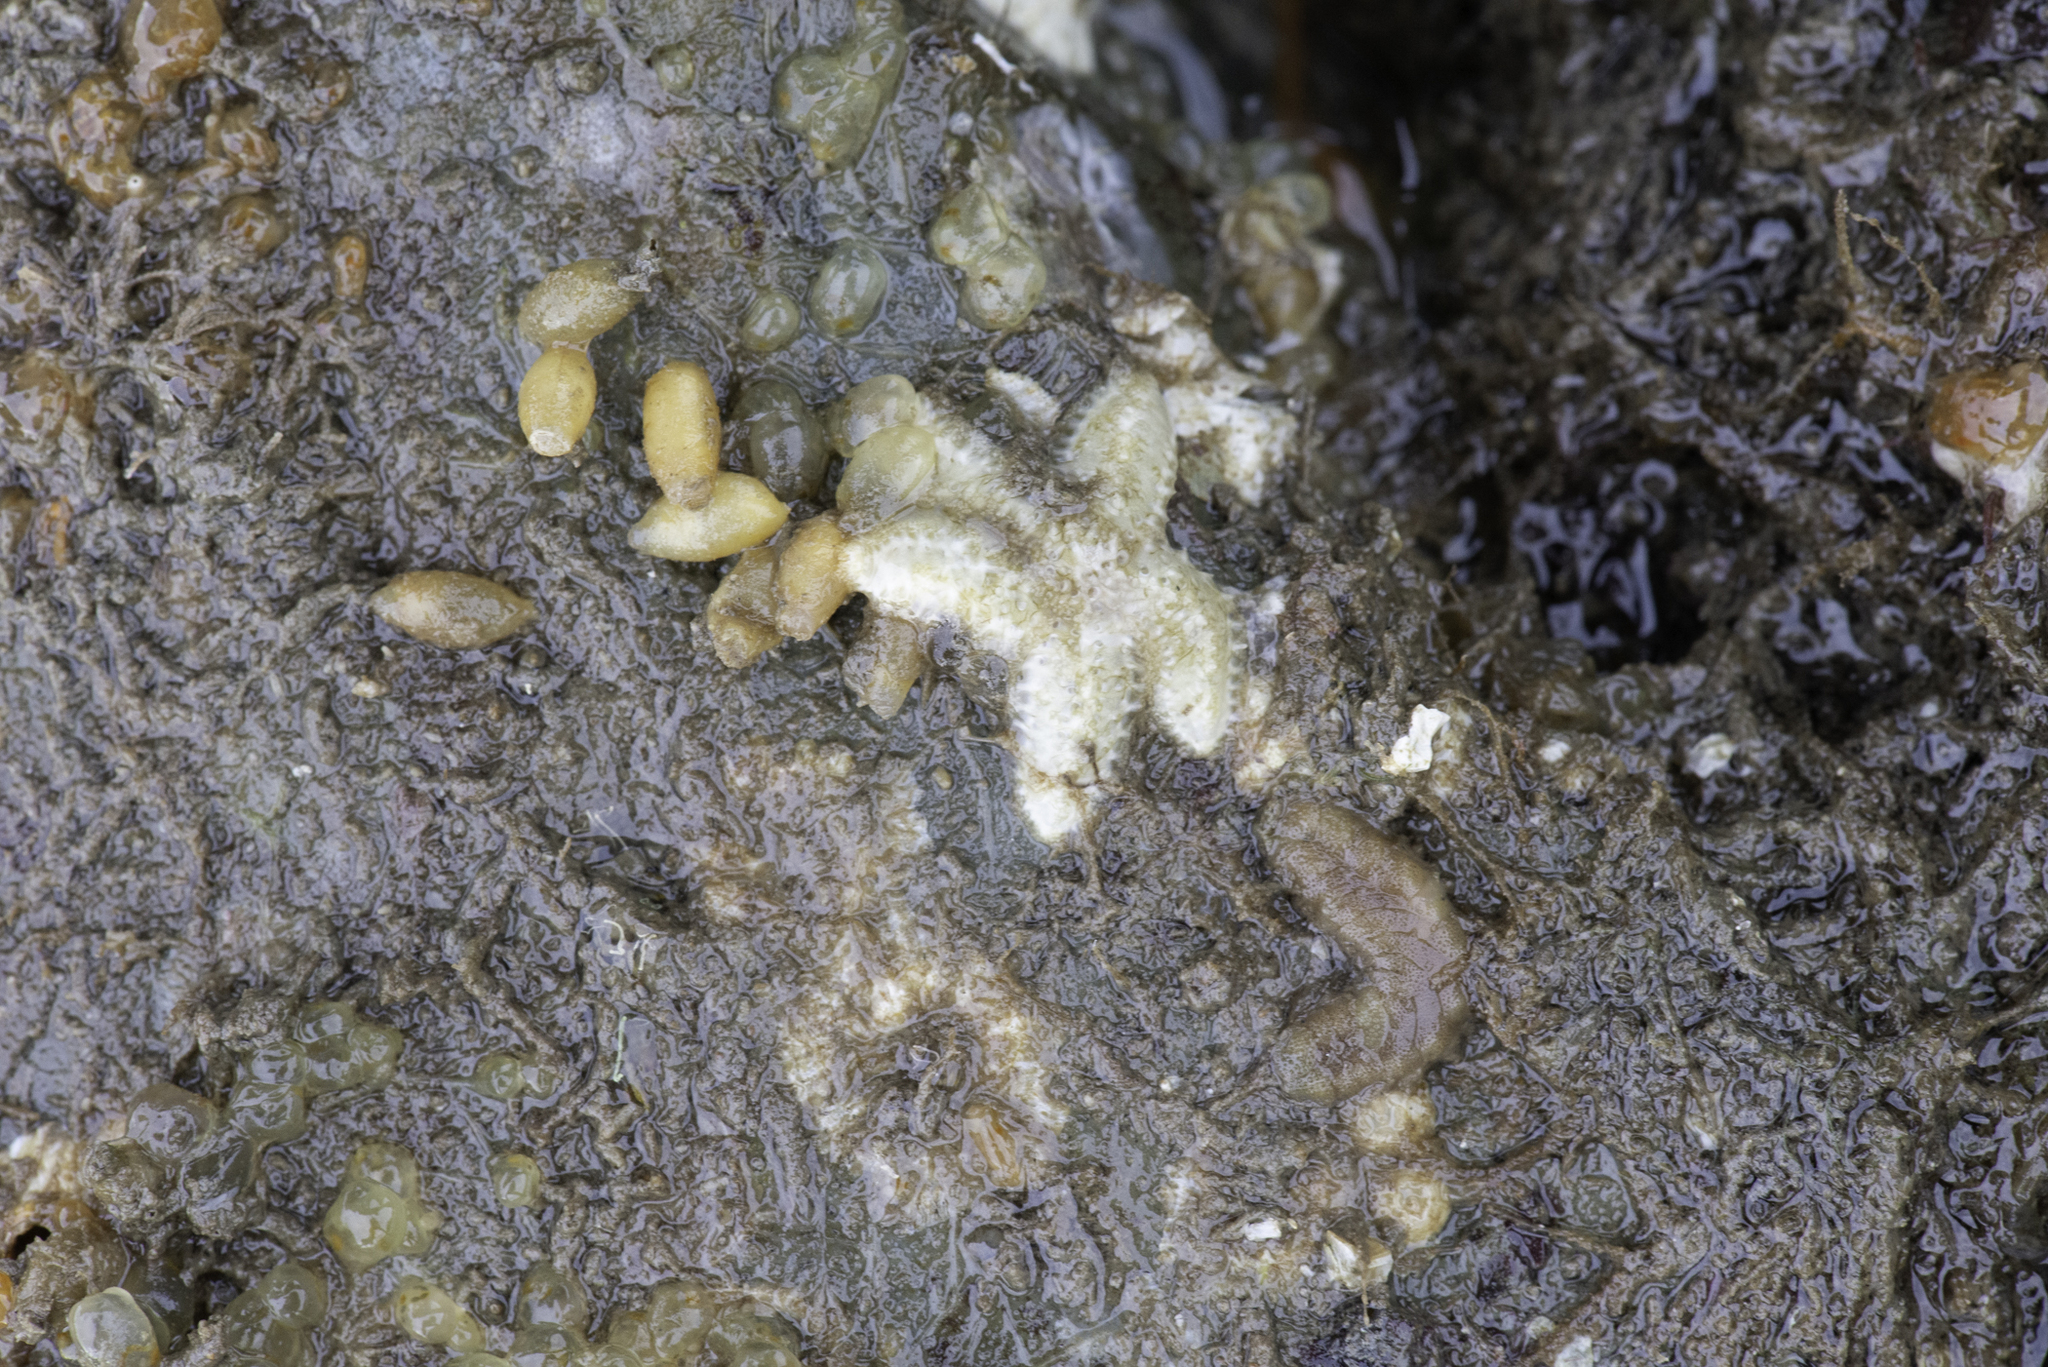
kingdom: Animalia
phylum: Echinodermata
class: Asteroidea
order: Forcipulatida
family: Asteriidae
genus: Leptasterias
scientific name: Leptasterias muelleri
